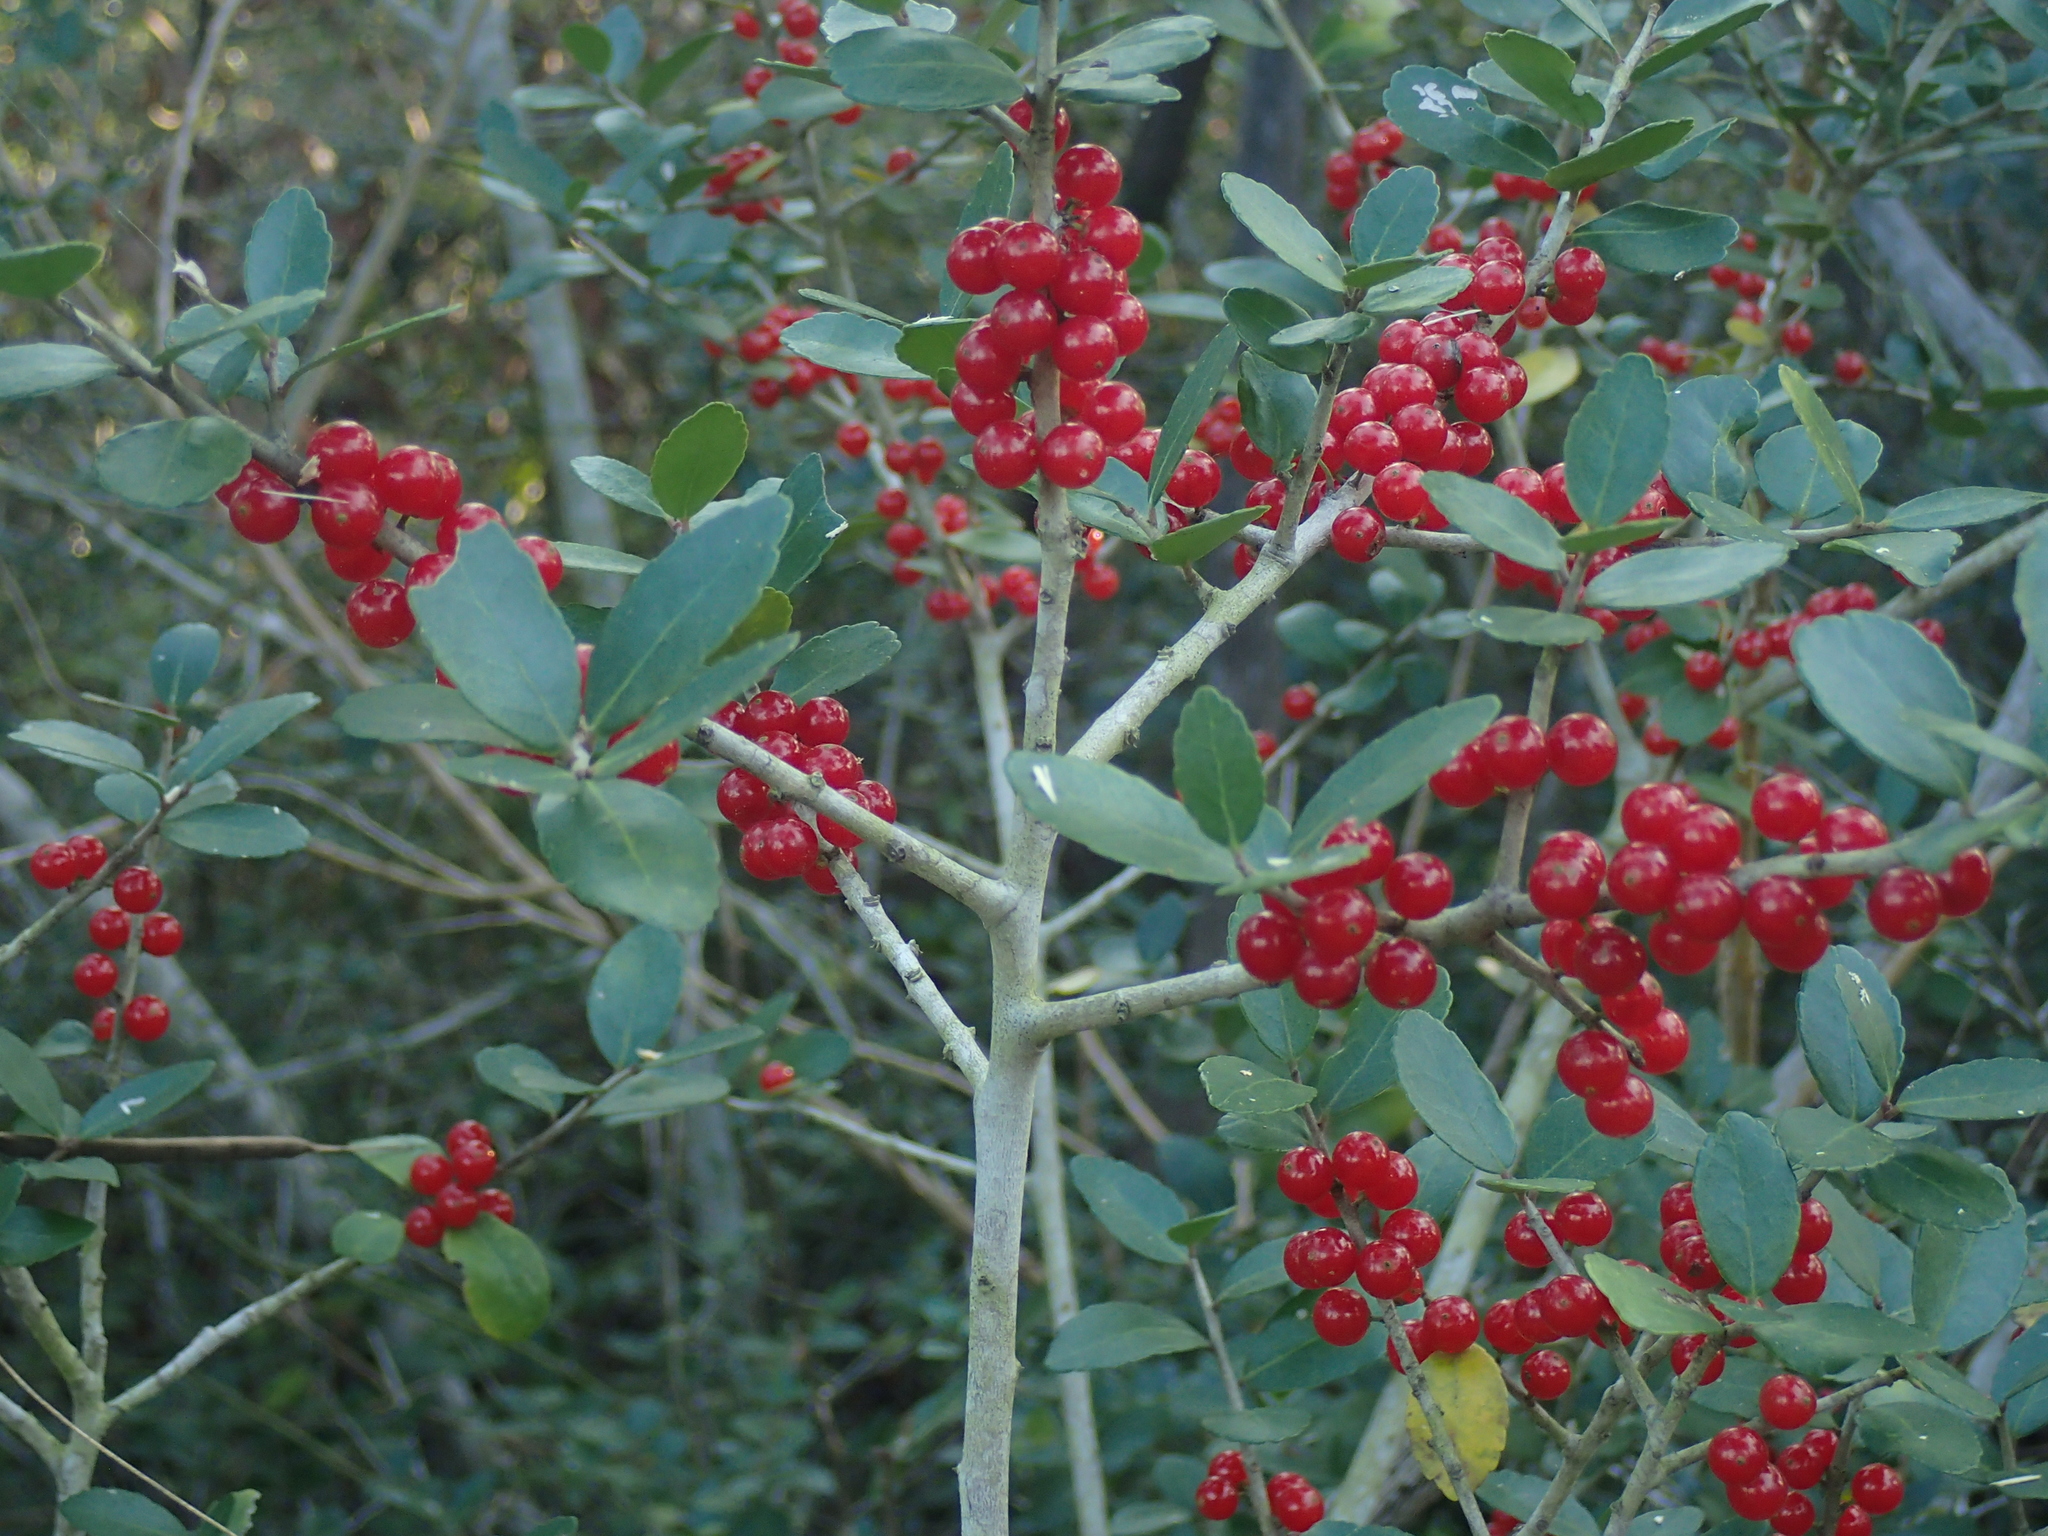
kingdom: Plantae
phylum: Tracheophyta
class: Magnoliopsida
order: Aquifoliales
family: Aquifoliaceae
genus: Ilex
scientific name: Ilex vomitoria
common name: Yaupon holly
